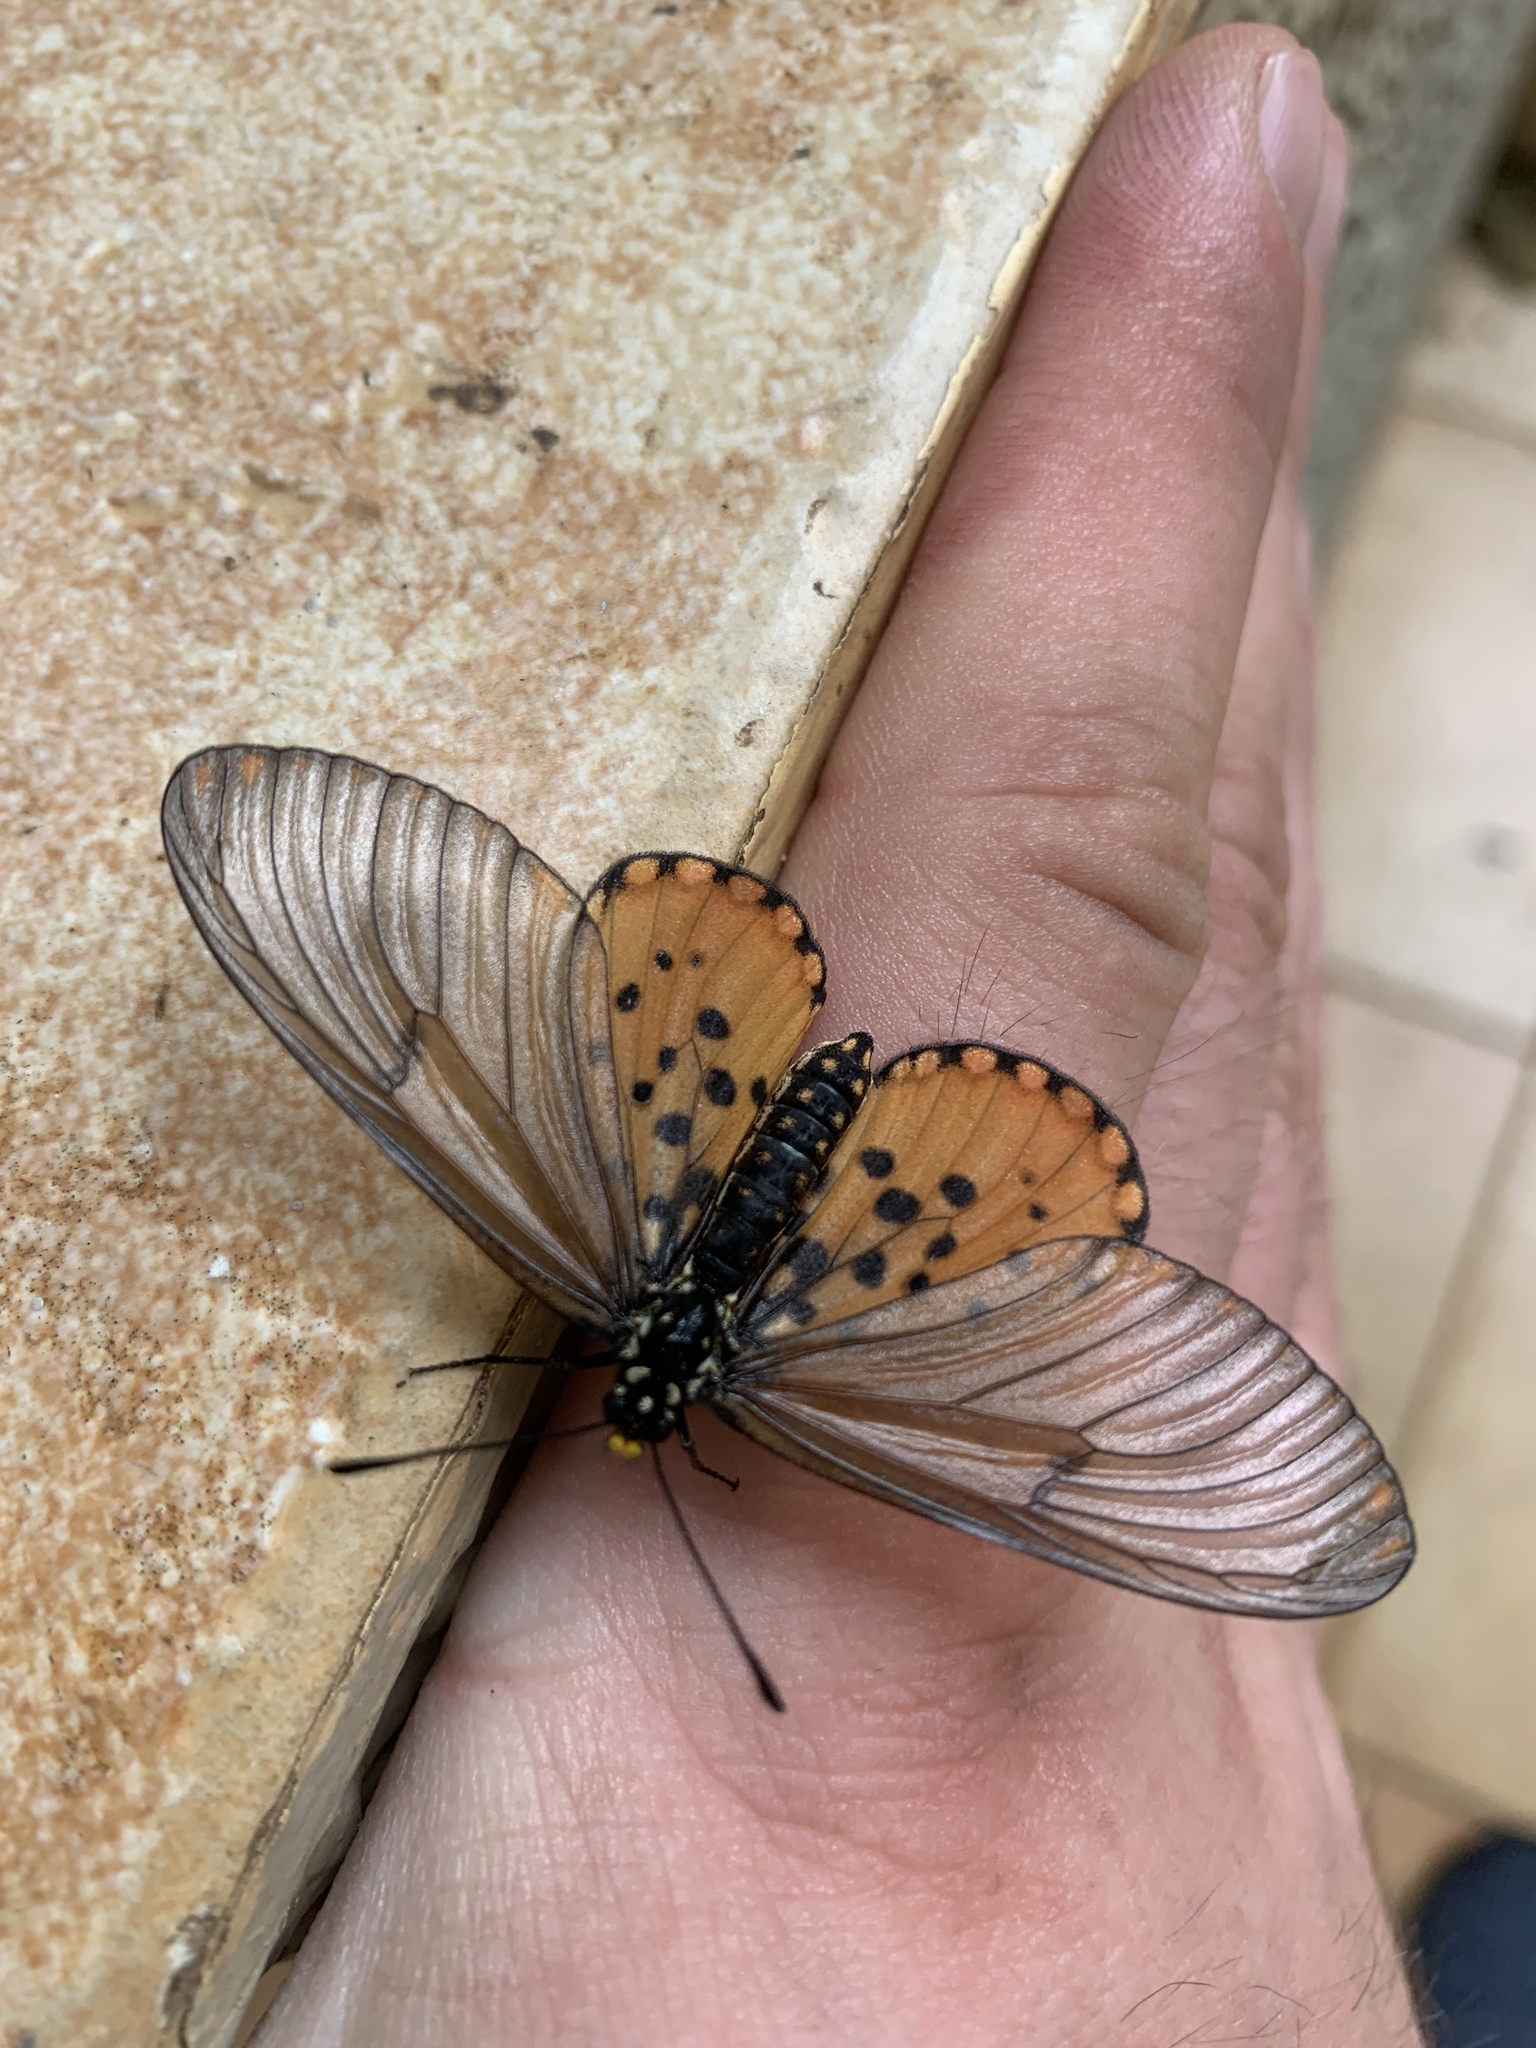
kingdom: Animalia
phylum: Arthropoda
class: Insecta
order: Lepidoptera
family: Nymphalidae
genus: Acraea
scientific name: Acraea horta
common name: Garden acraea
